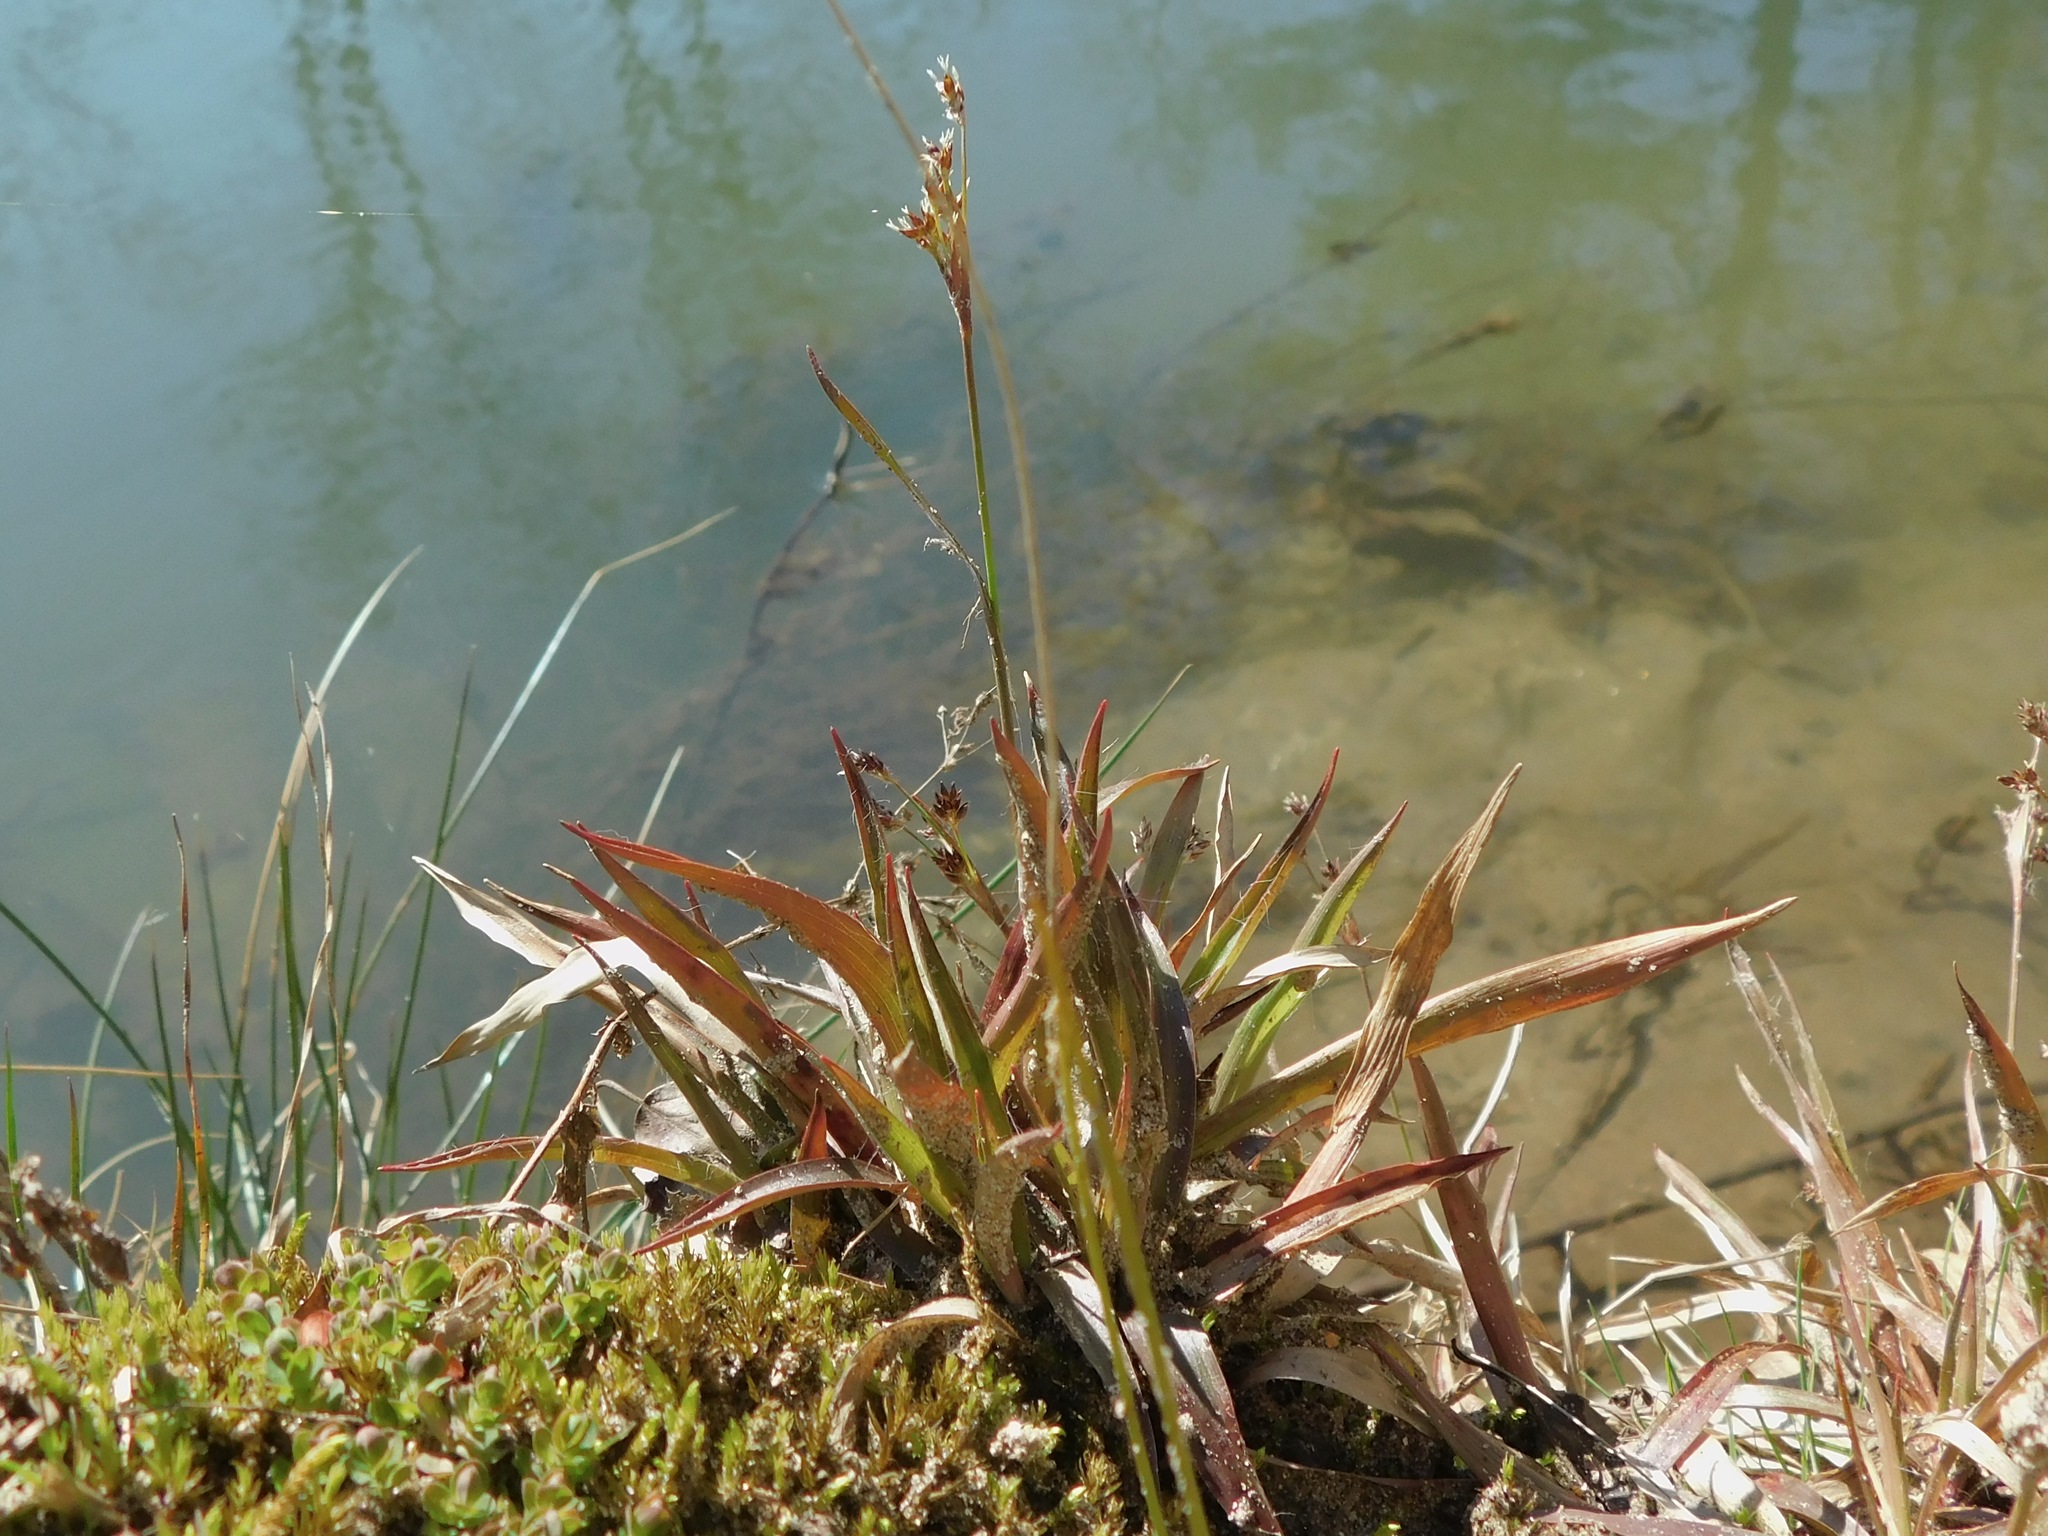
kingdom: Plantae
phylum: Tracheophyta
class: Liliopsida
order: Poales
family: Juncaceae
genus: Luzula
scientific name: Luzula echinata
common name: Hedgehog woodrush
